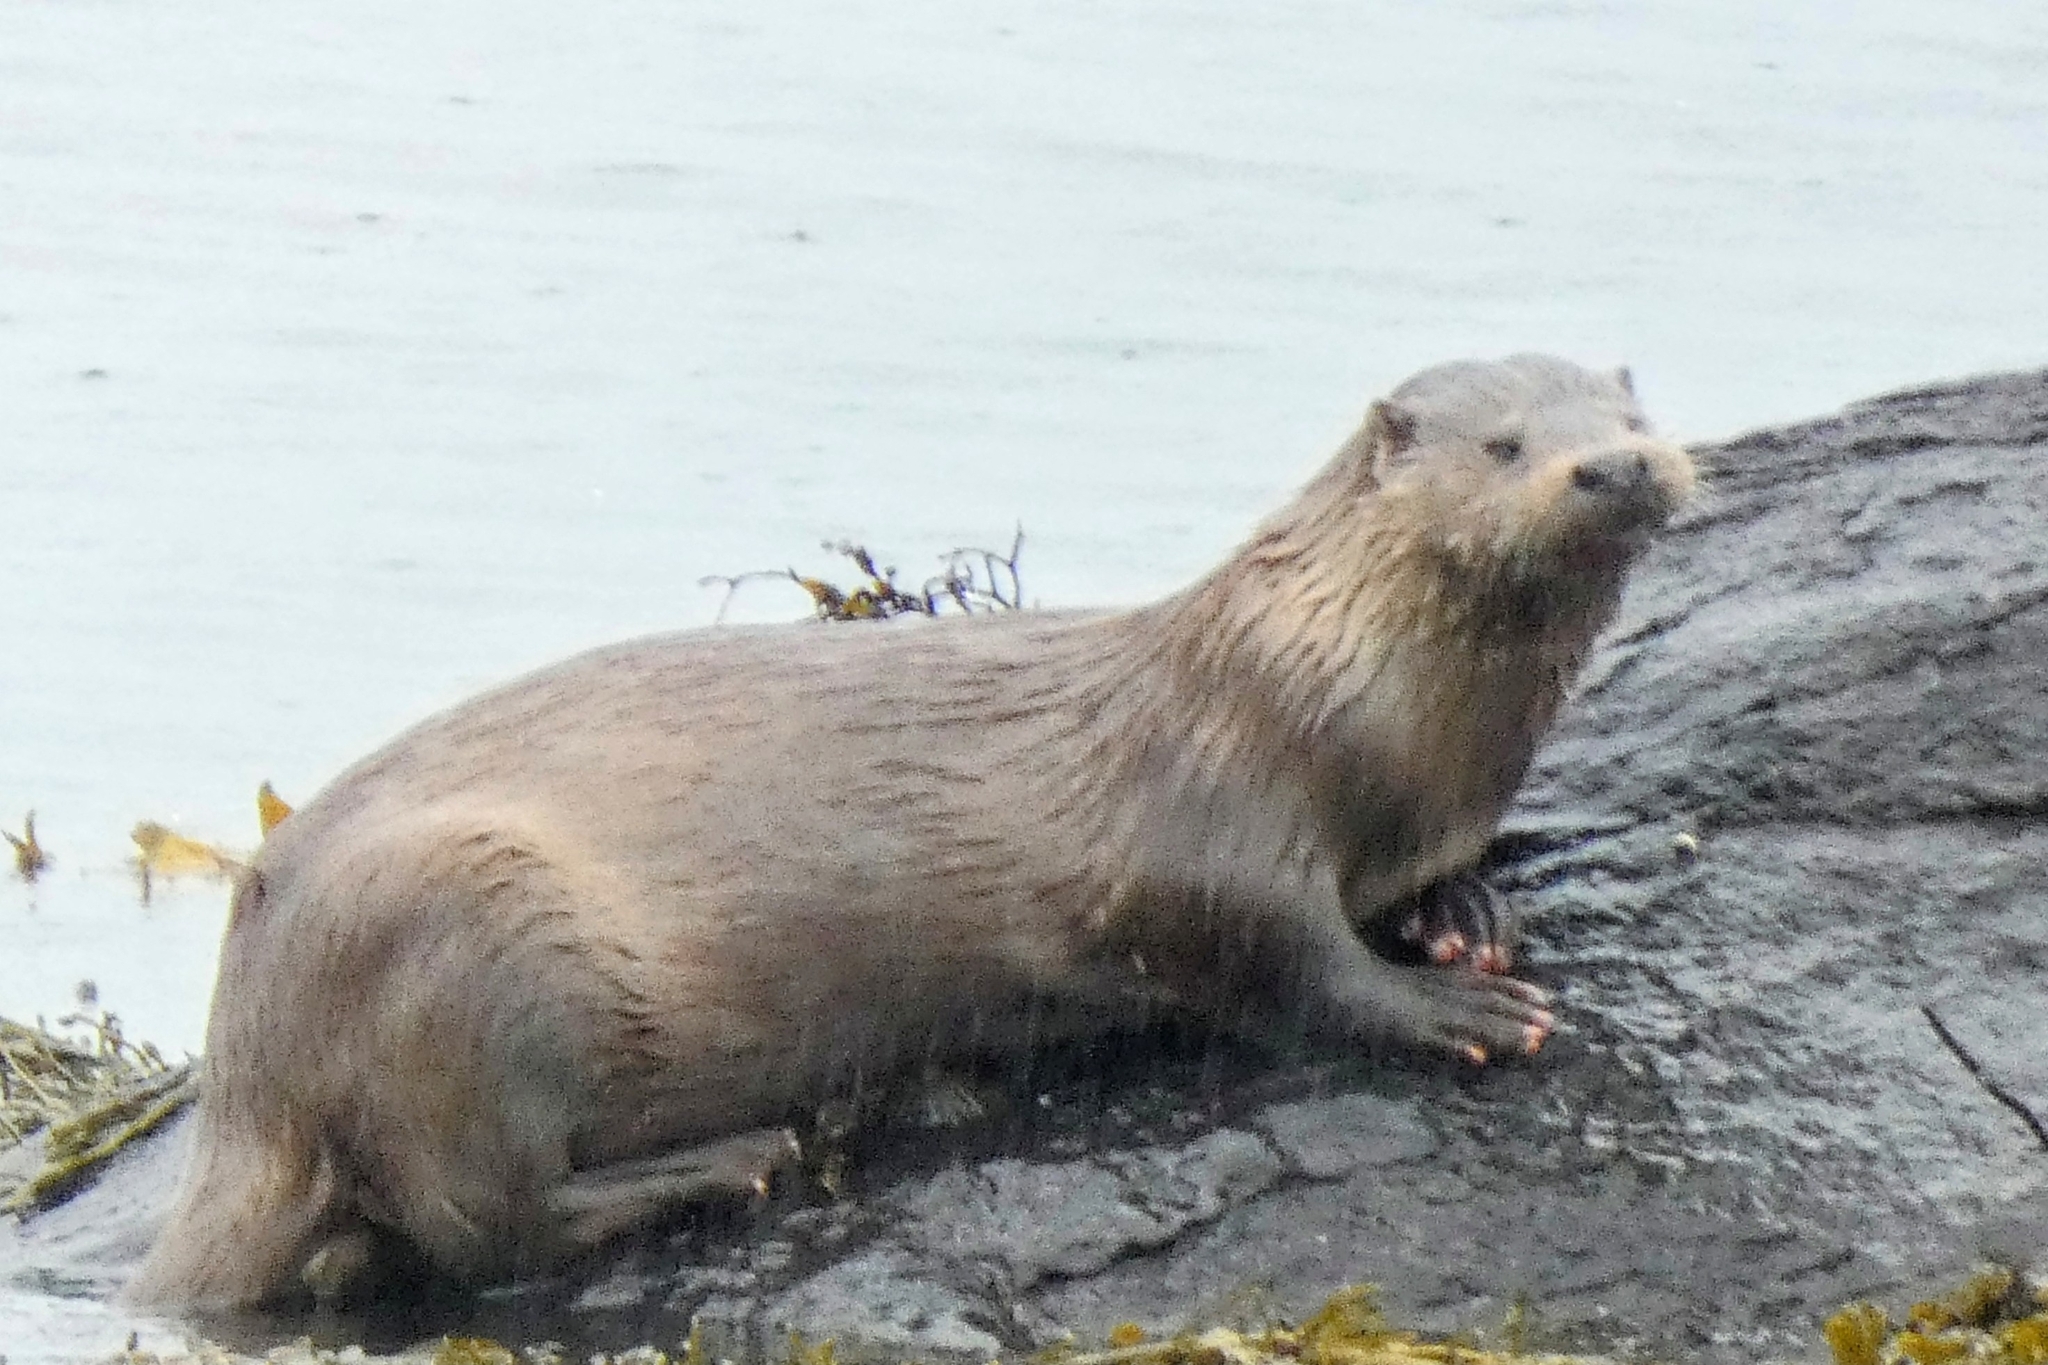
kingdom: Animalia
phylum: Chordata
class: Mammalia
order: Carnivora
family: Mustelidae
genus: Lutra
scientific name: Lutra lutra
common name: European otter
